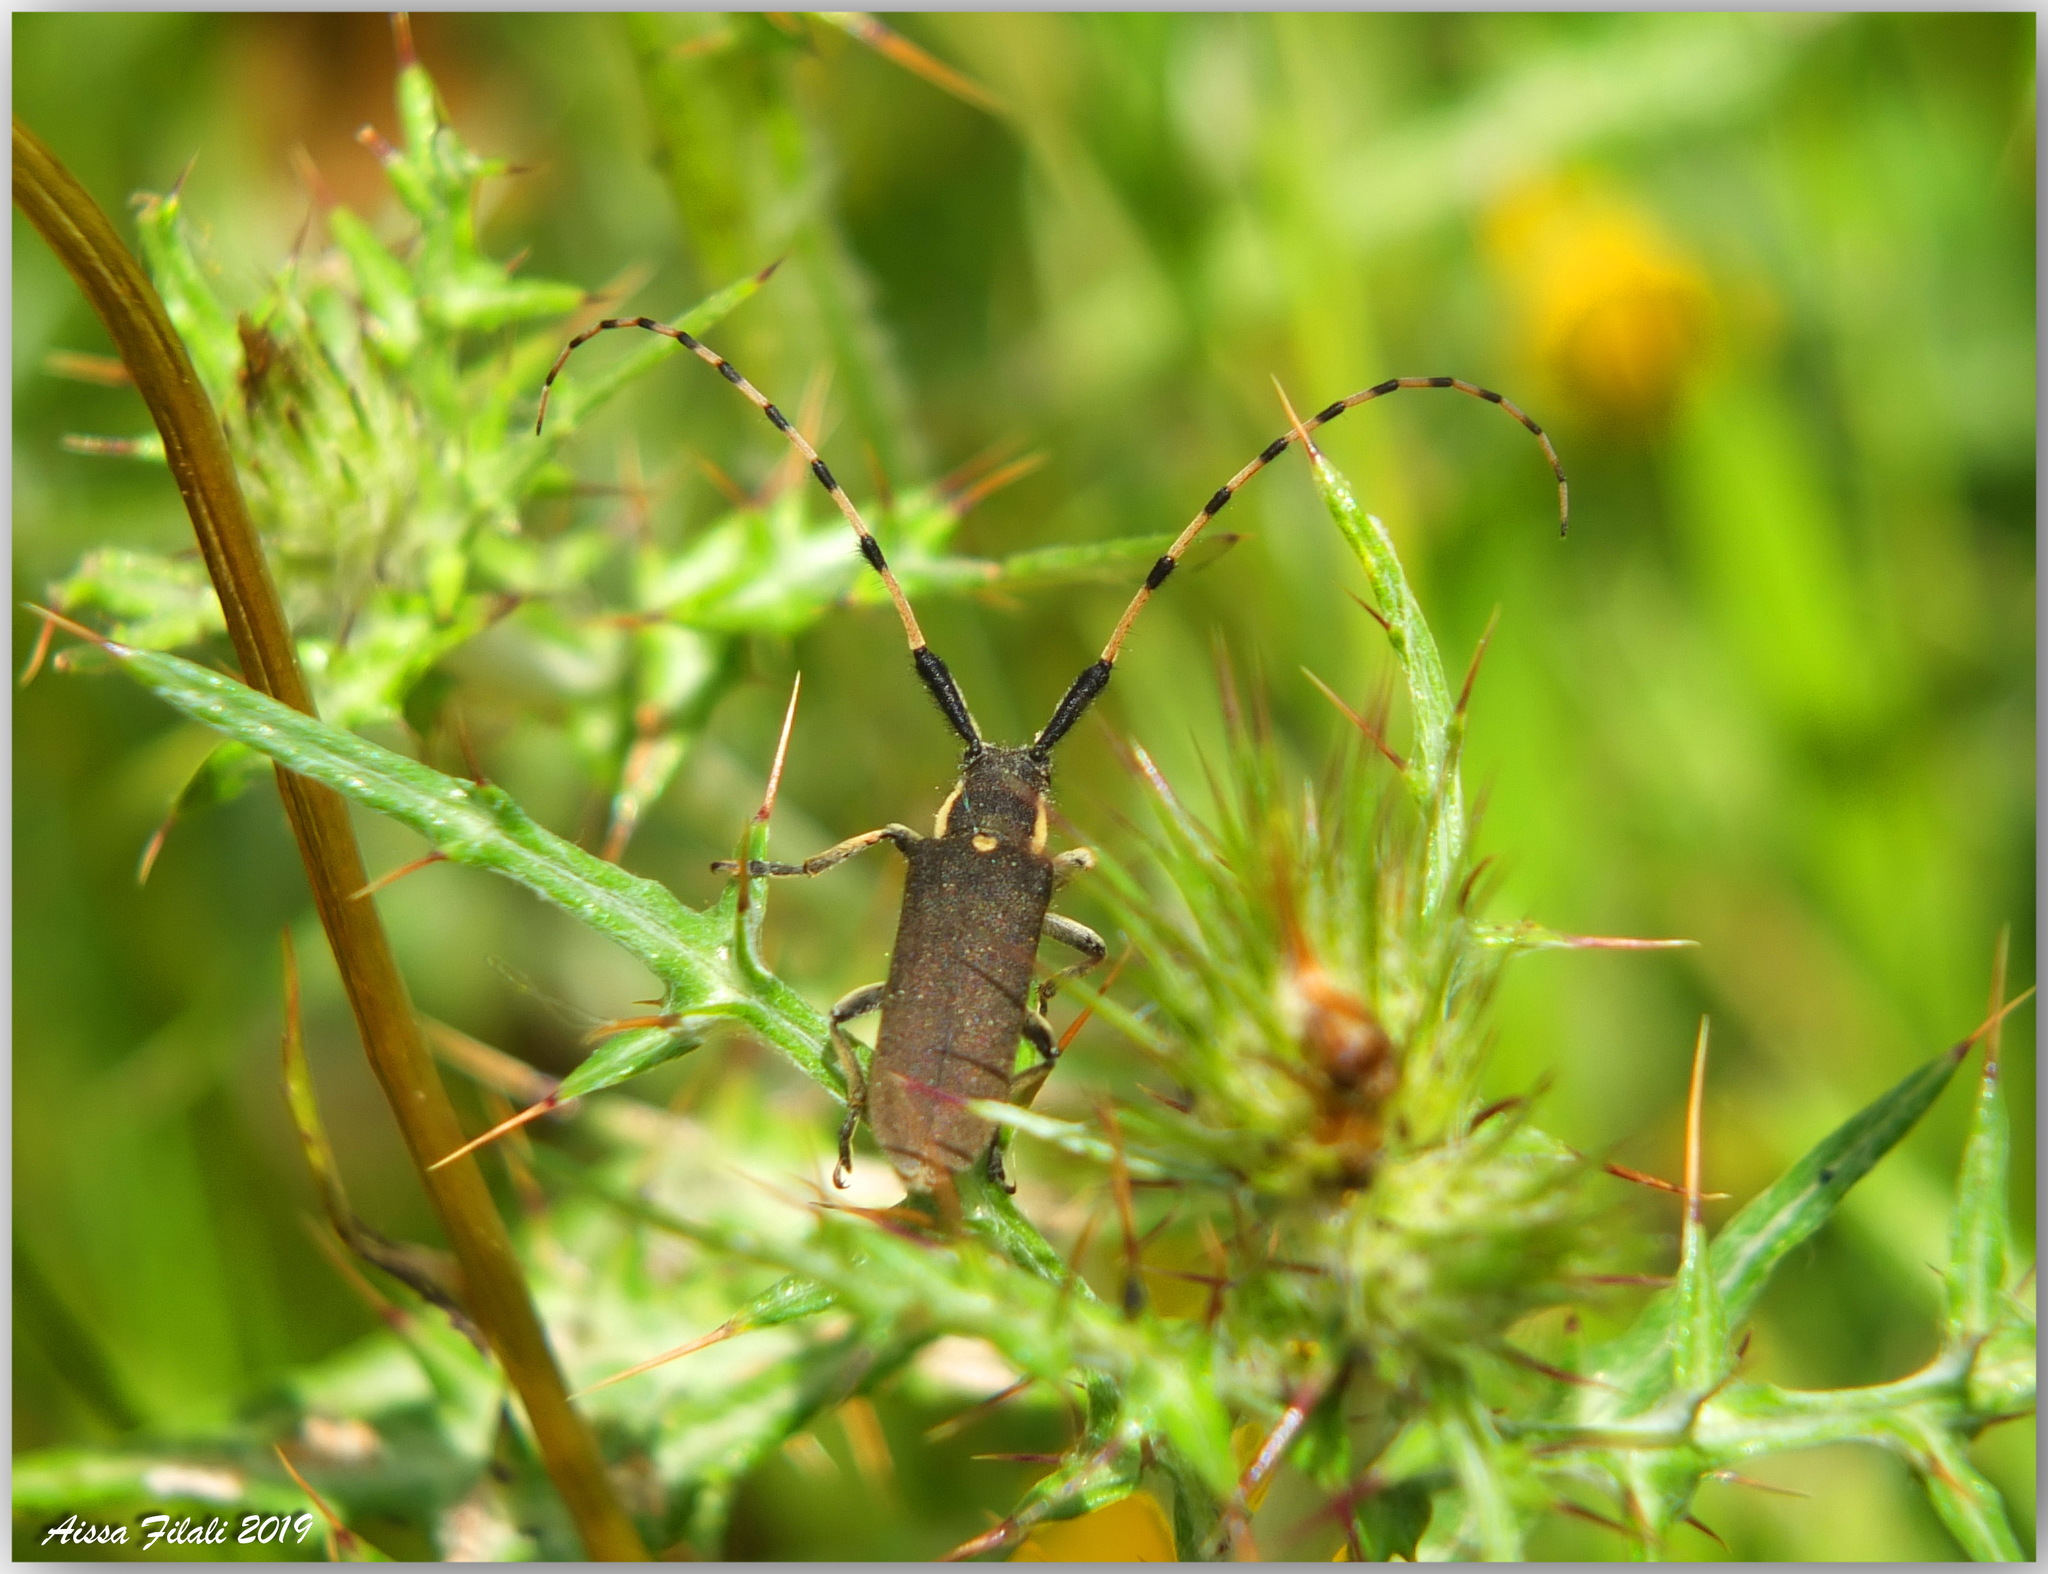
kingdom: Animalia
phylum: Arthropoda
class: Insecta
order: Coleoptera
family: Cerambycidae
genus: Agapanthia
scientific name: Agapanthia annularis
